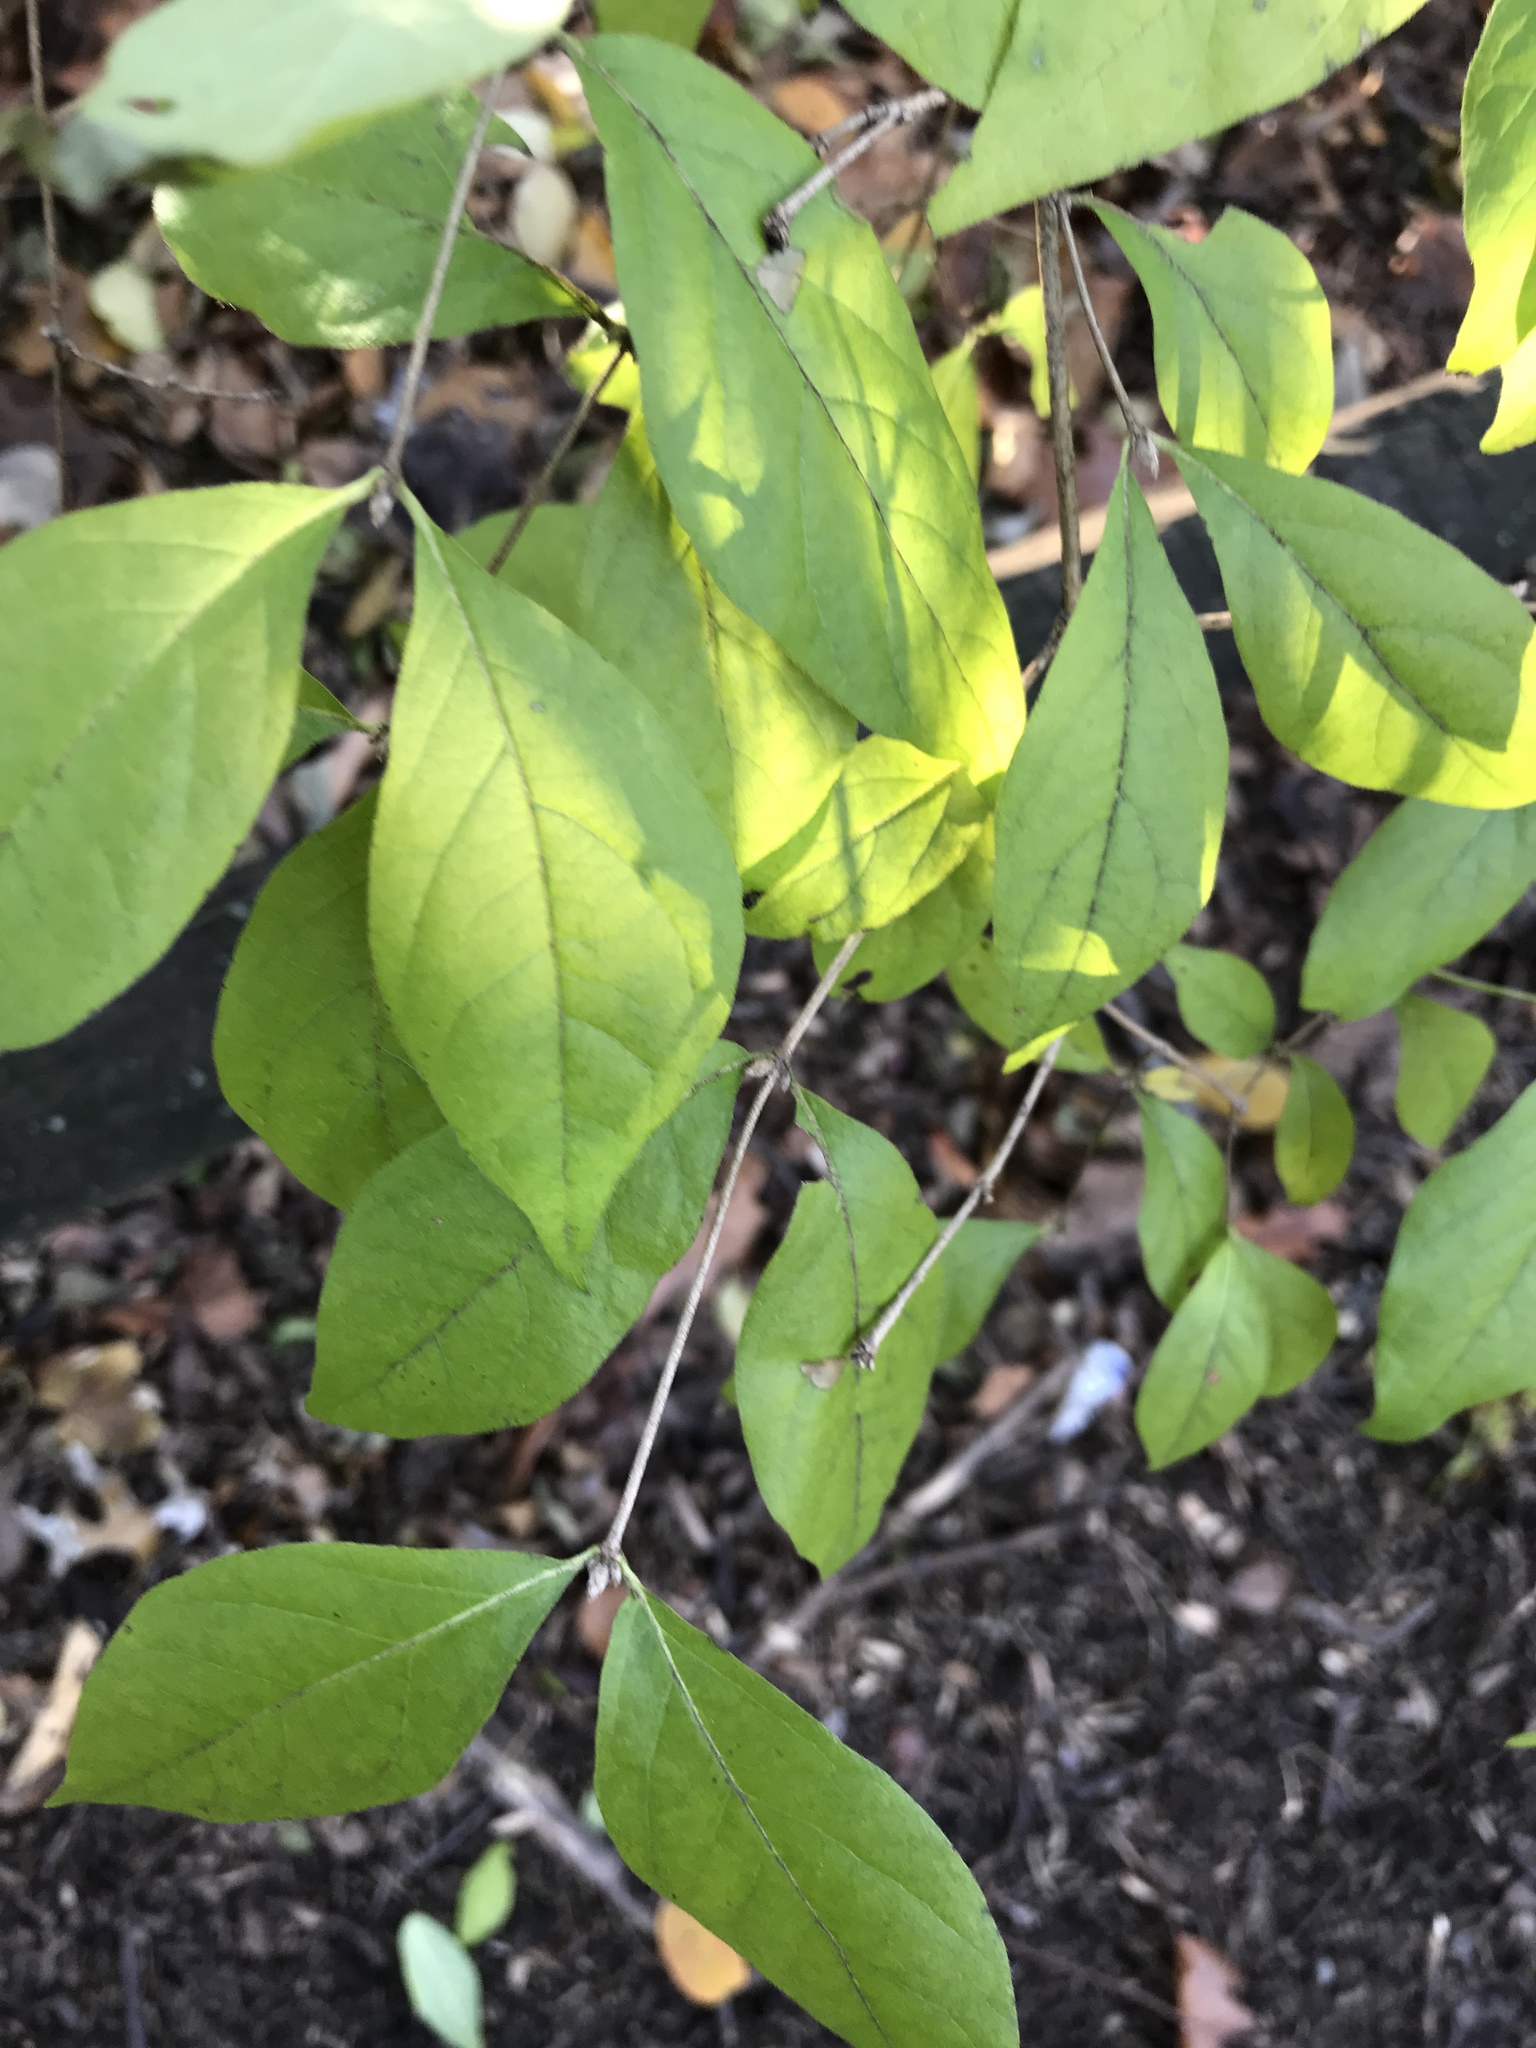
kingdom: Plantae
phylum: Tracheophyta
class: Magnoliopsida
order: Dipsacales
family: Caprifoliaceae
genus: Lonicera
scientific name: Lonicera maackii
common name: Amur honeysuckle
